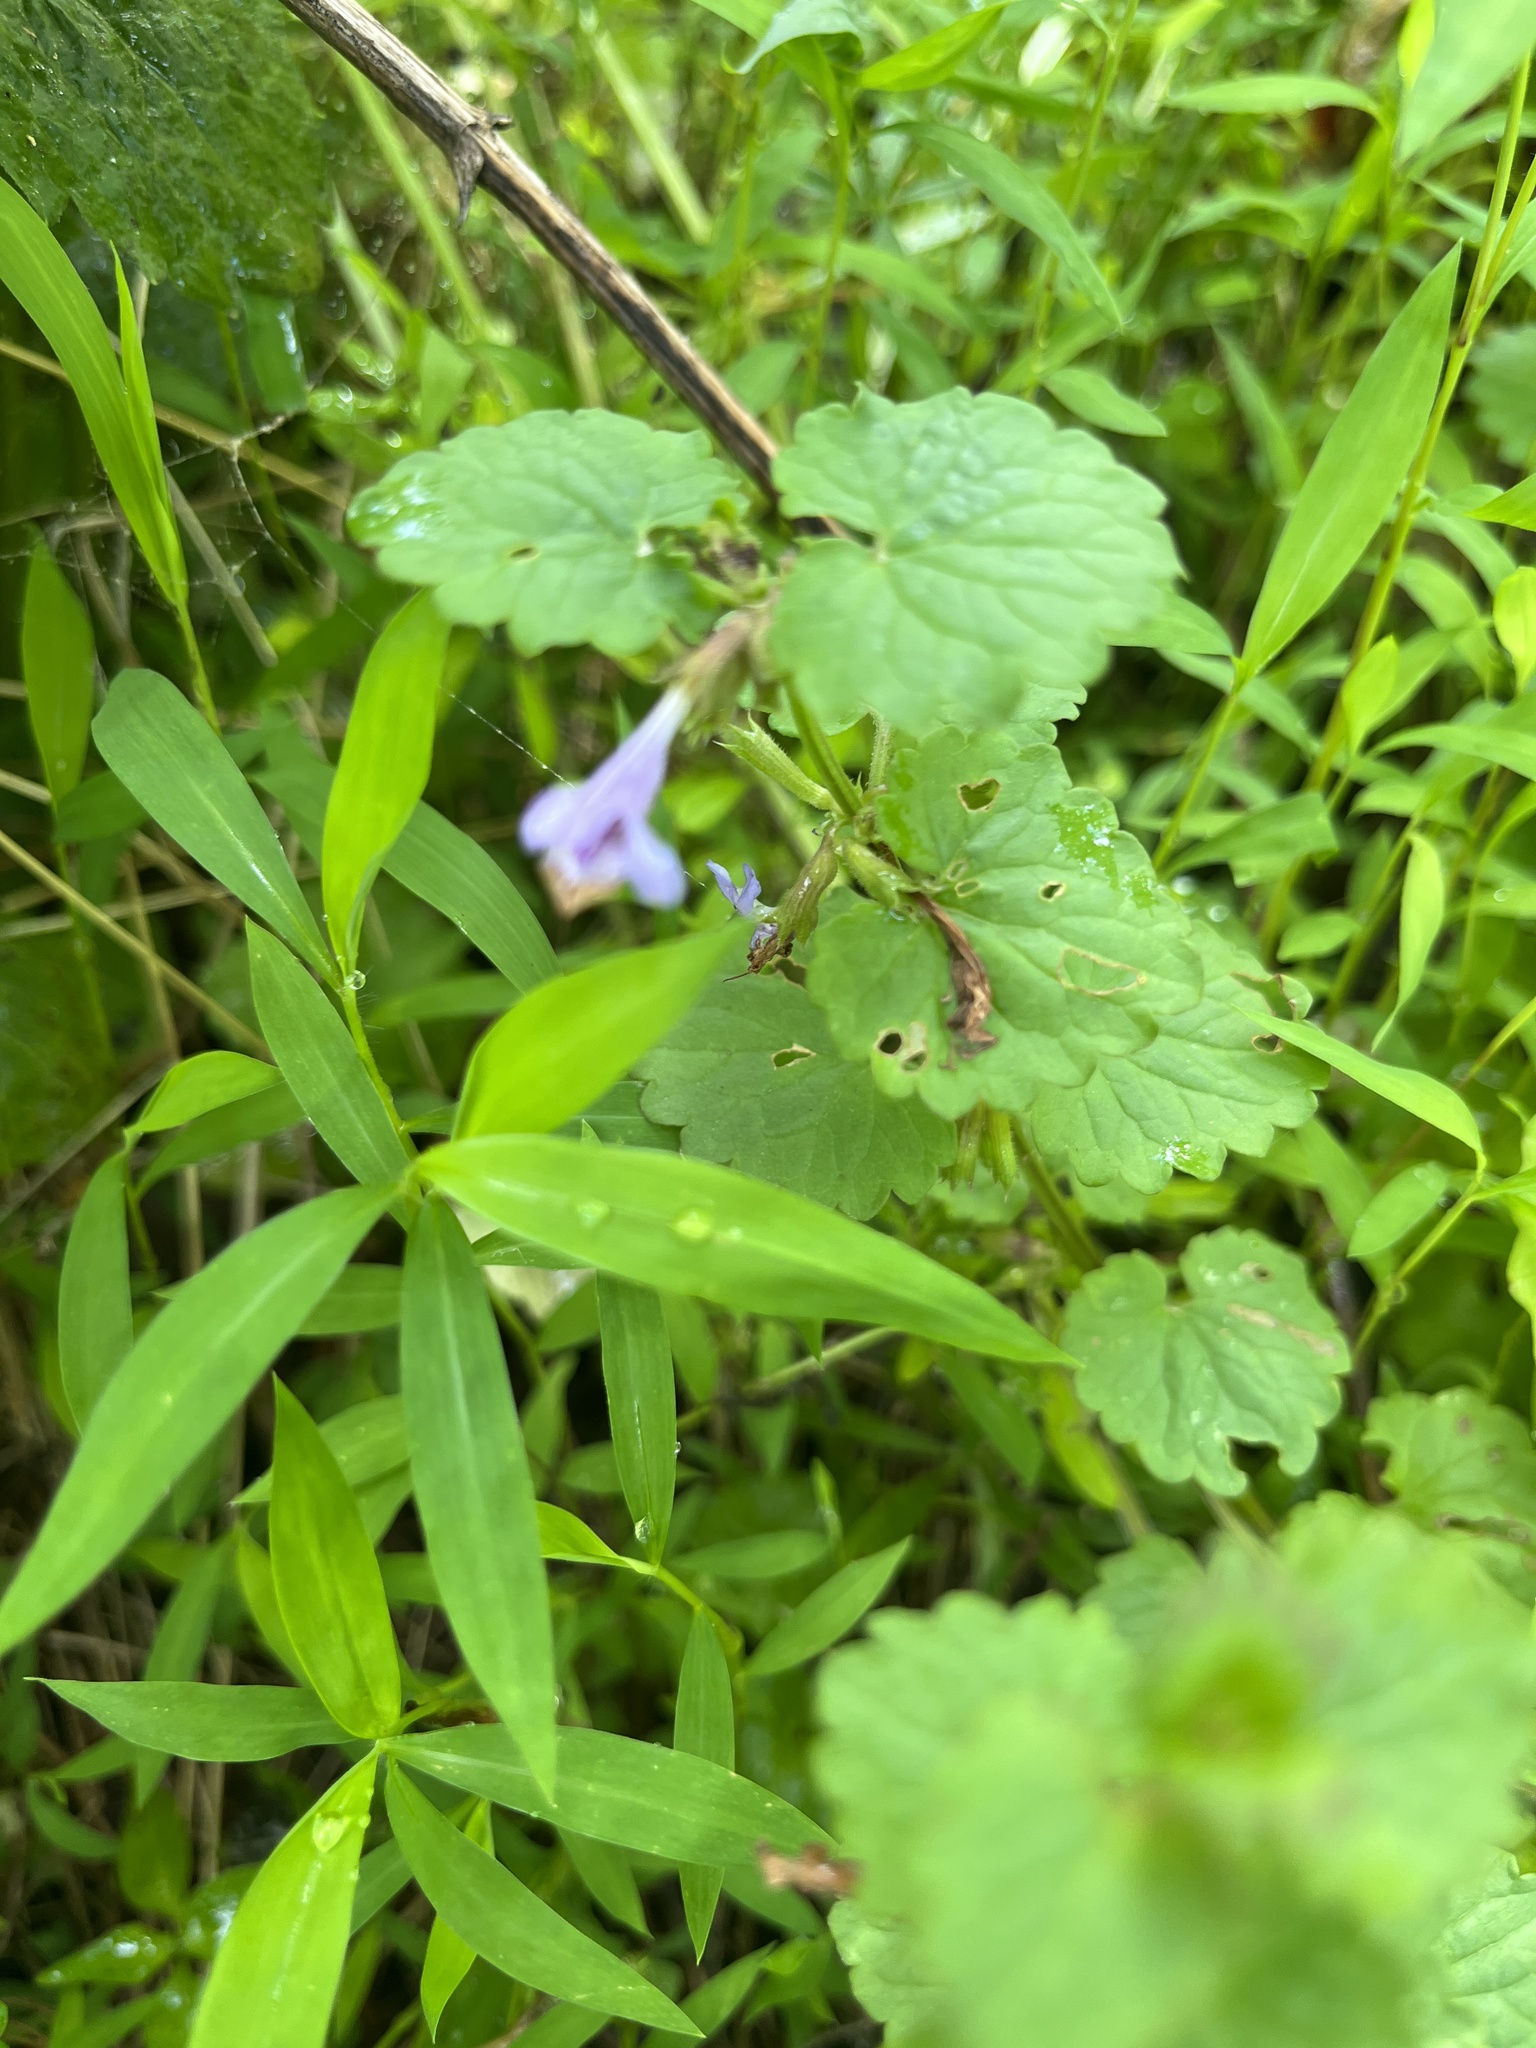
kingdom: Plantae
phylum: Tracheophyta
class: Magnoliopsida
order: Lamiales
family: Lamiaceae
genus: Glechoma
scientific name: Glechoma hederacea
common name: Ground ivy
